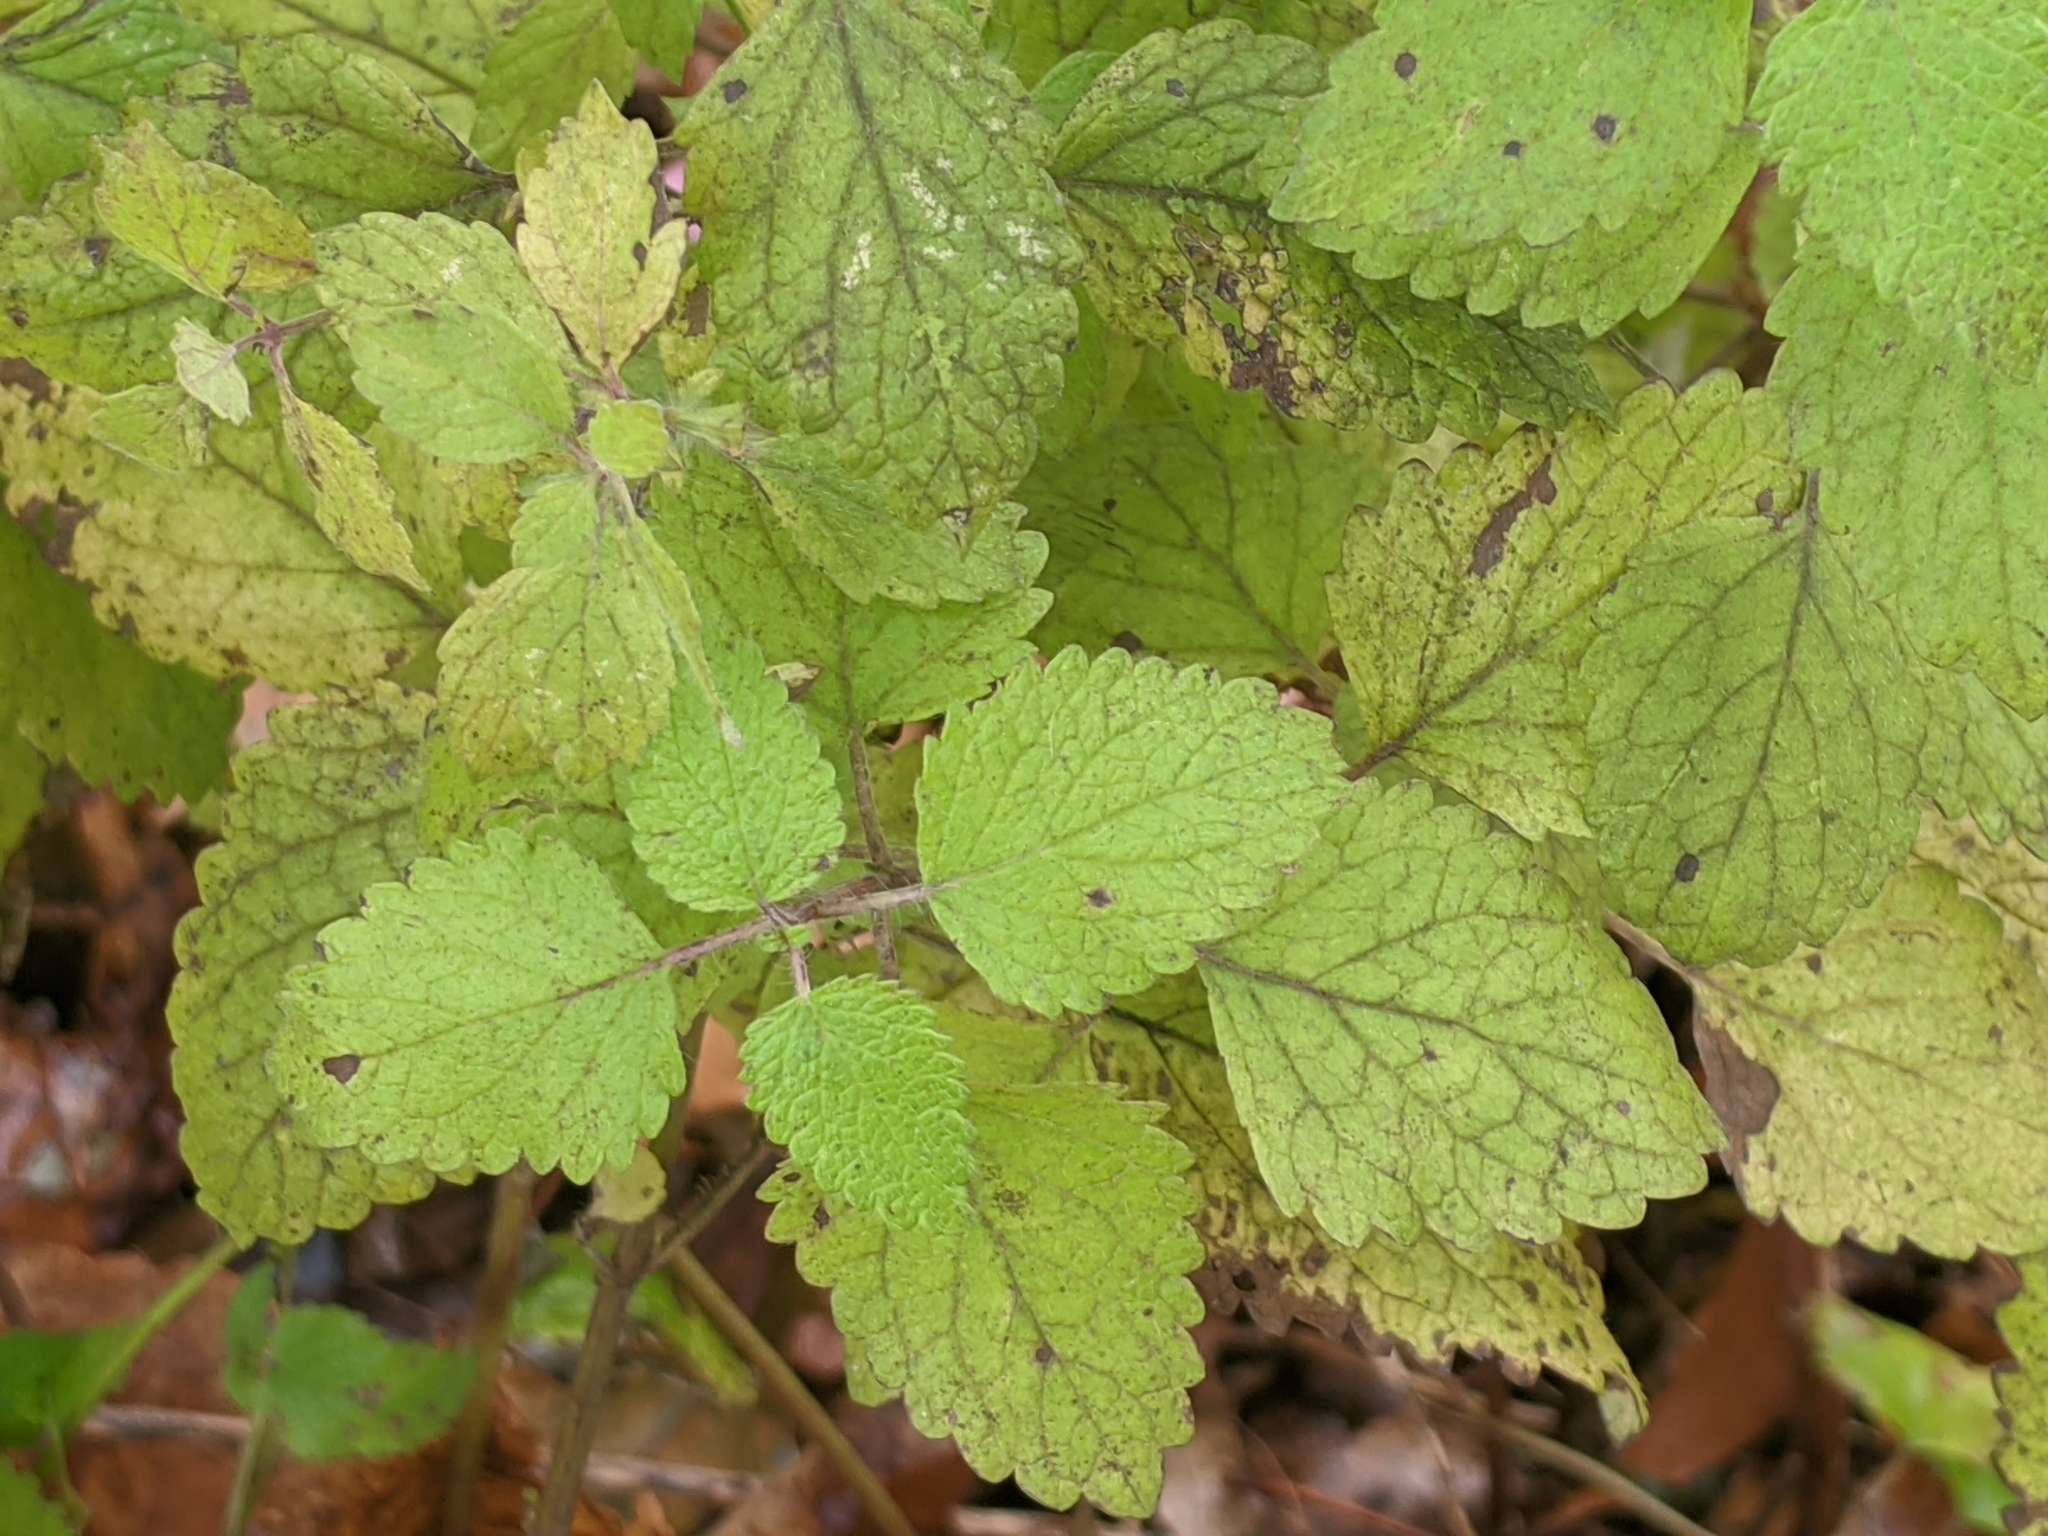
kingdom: Plantae
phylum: Tracheophyta
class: Magnoliopsida
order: Lamiales
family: Lamiaceae
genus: Melissa
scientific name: Melissa officinalis
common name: Balm
